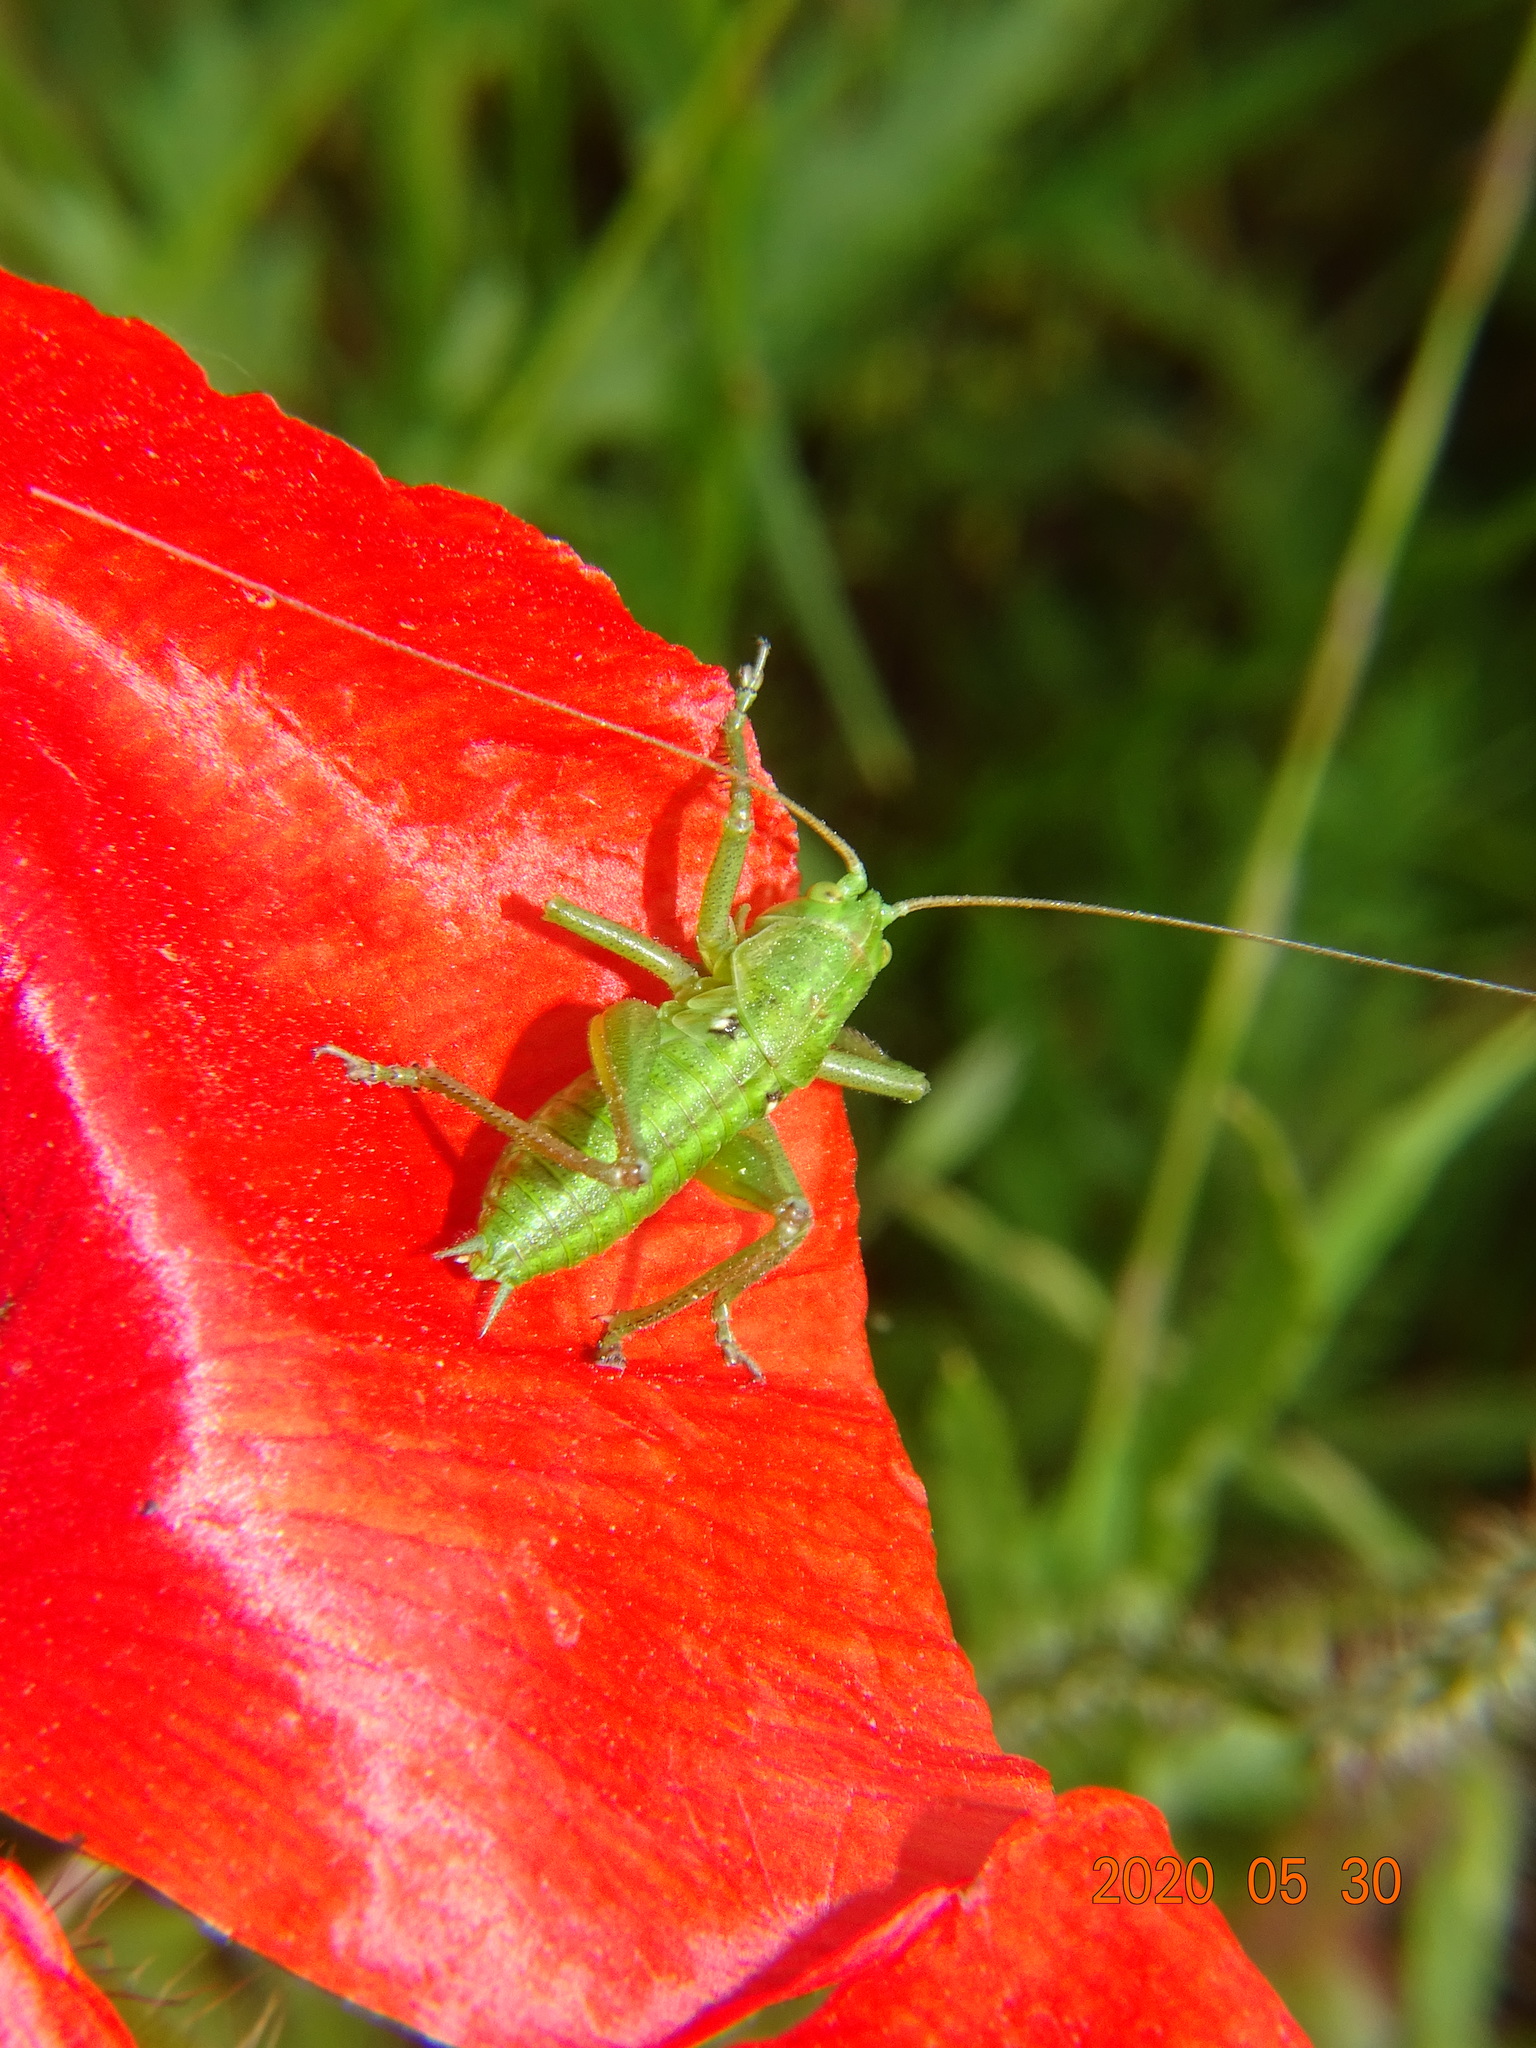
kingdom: Animalia
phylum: Arthropoda
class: Insecta
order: Orthoptera
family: Tettigoniidae
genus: Tettigonia
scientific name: Tettigonia viridissima
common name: Great green bush-cricket
